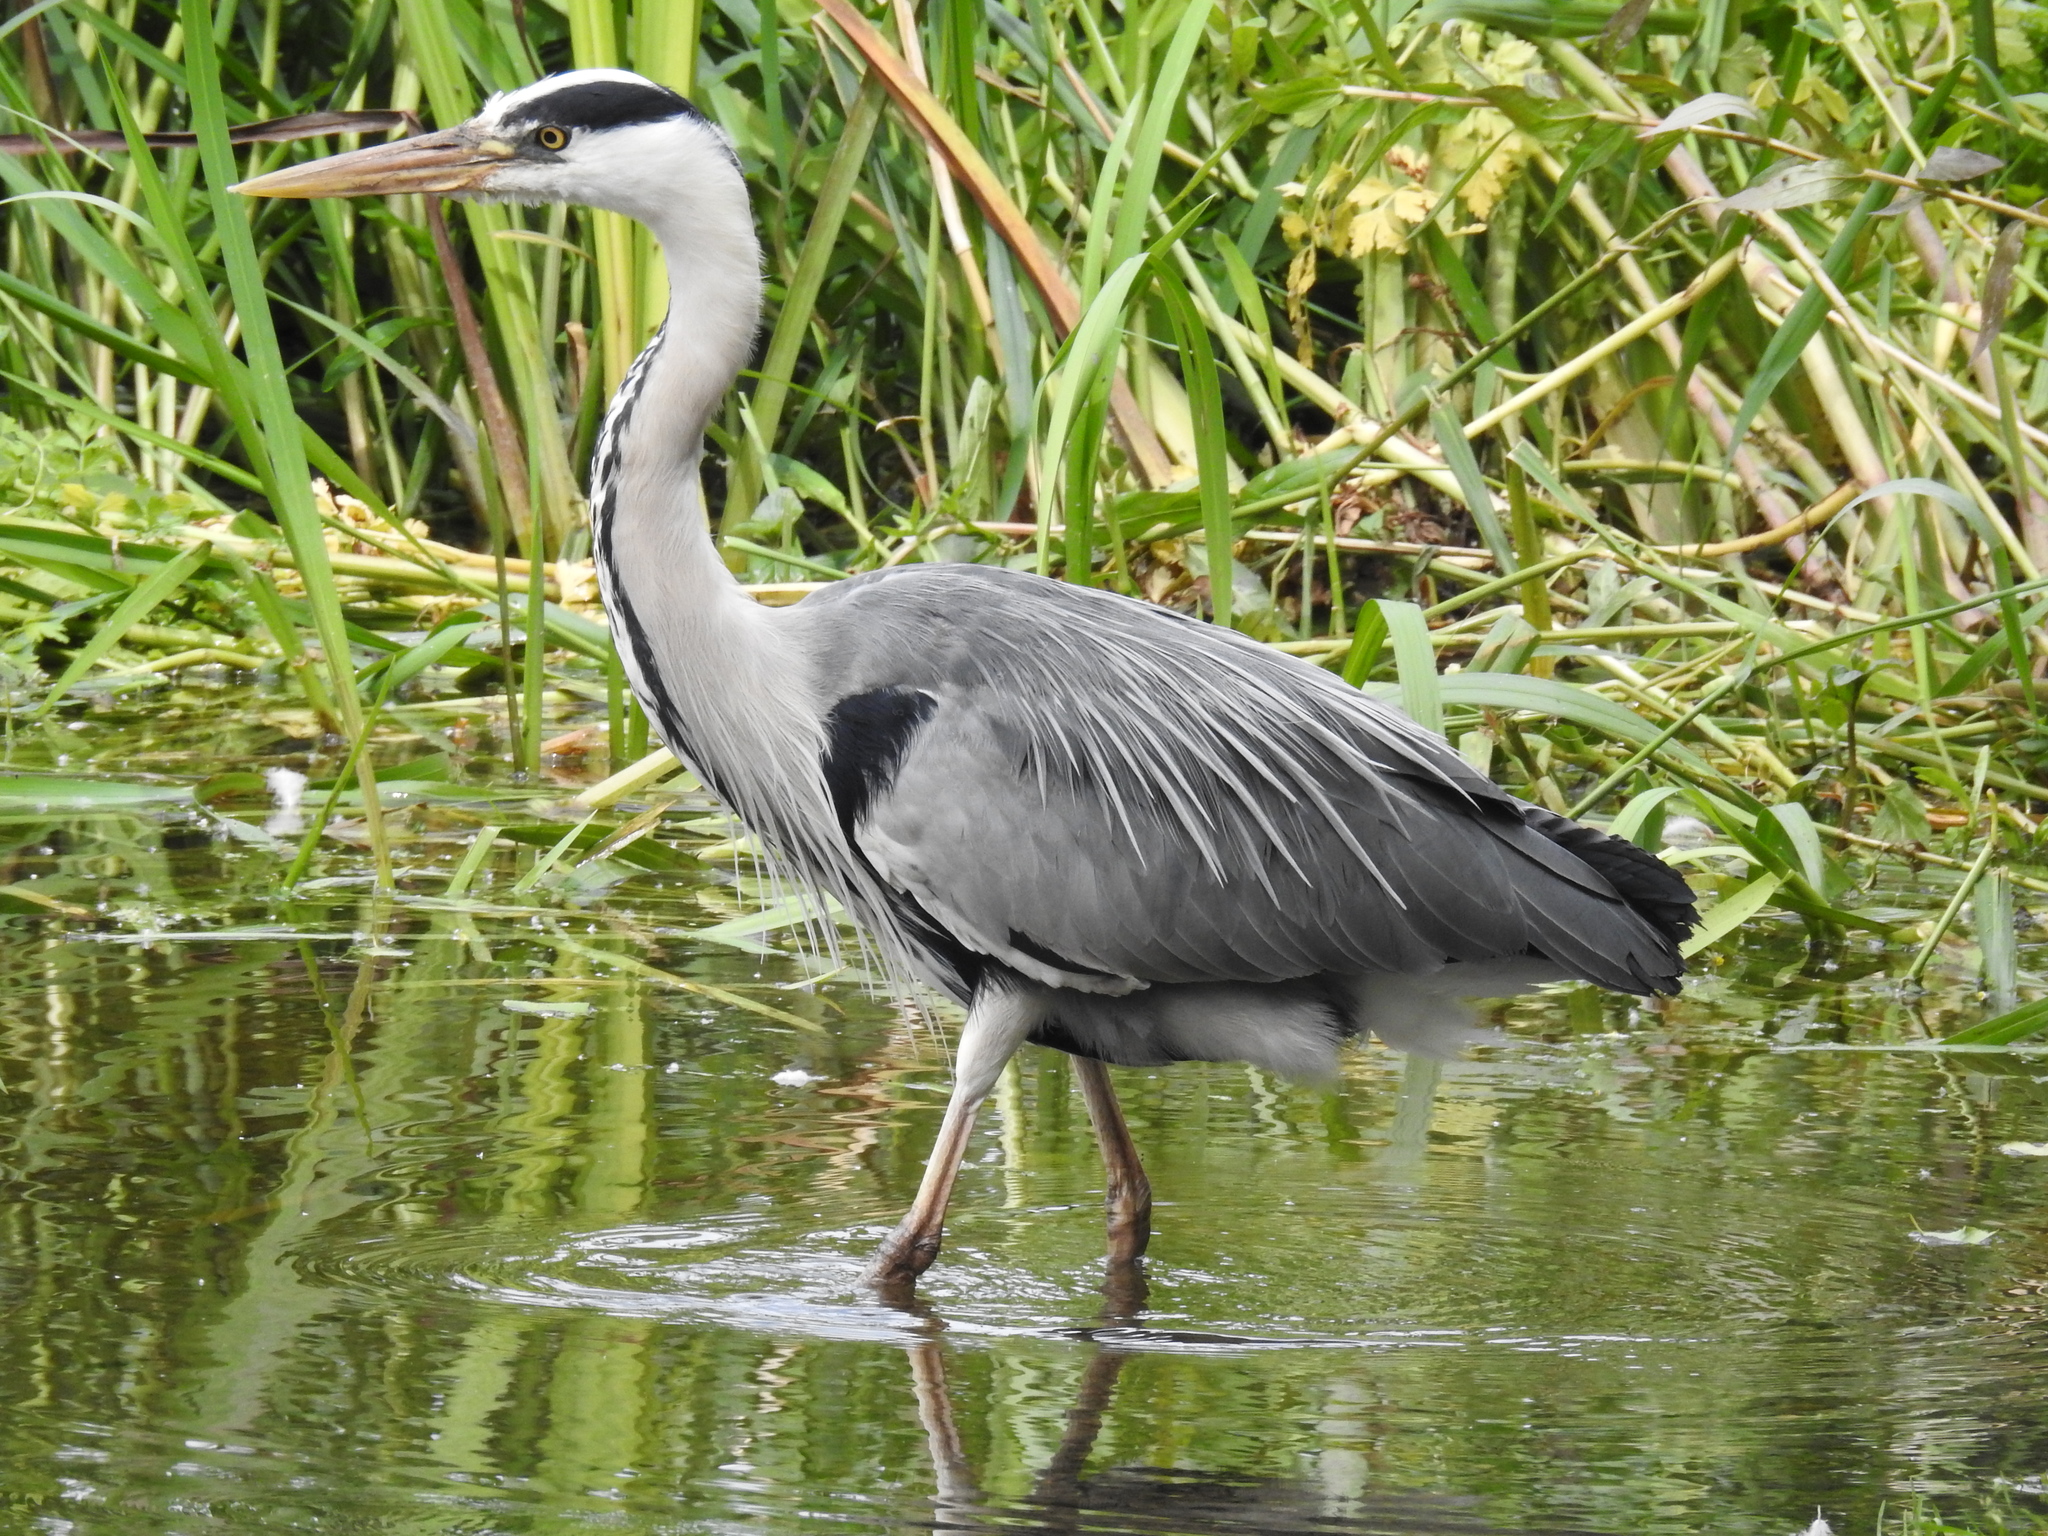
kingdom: Animalia
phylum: Chordata
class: Aves
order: Pelecaniformes
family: Ardeidae
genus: Ardea
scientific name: Ardea cinerea
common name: Grey heron
